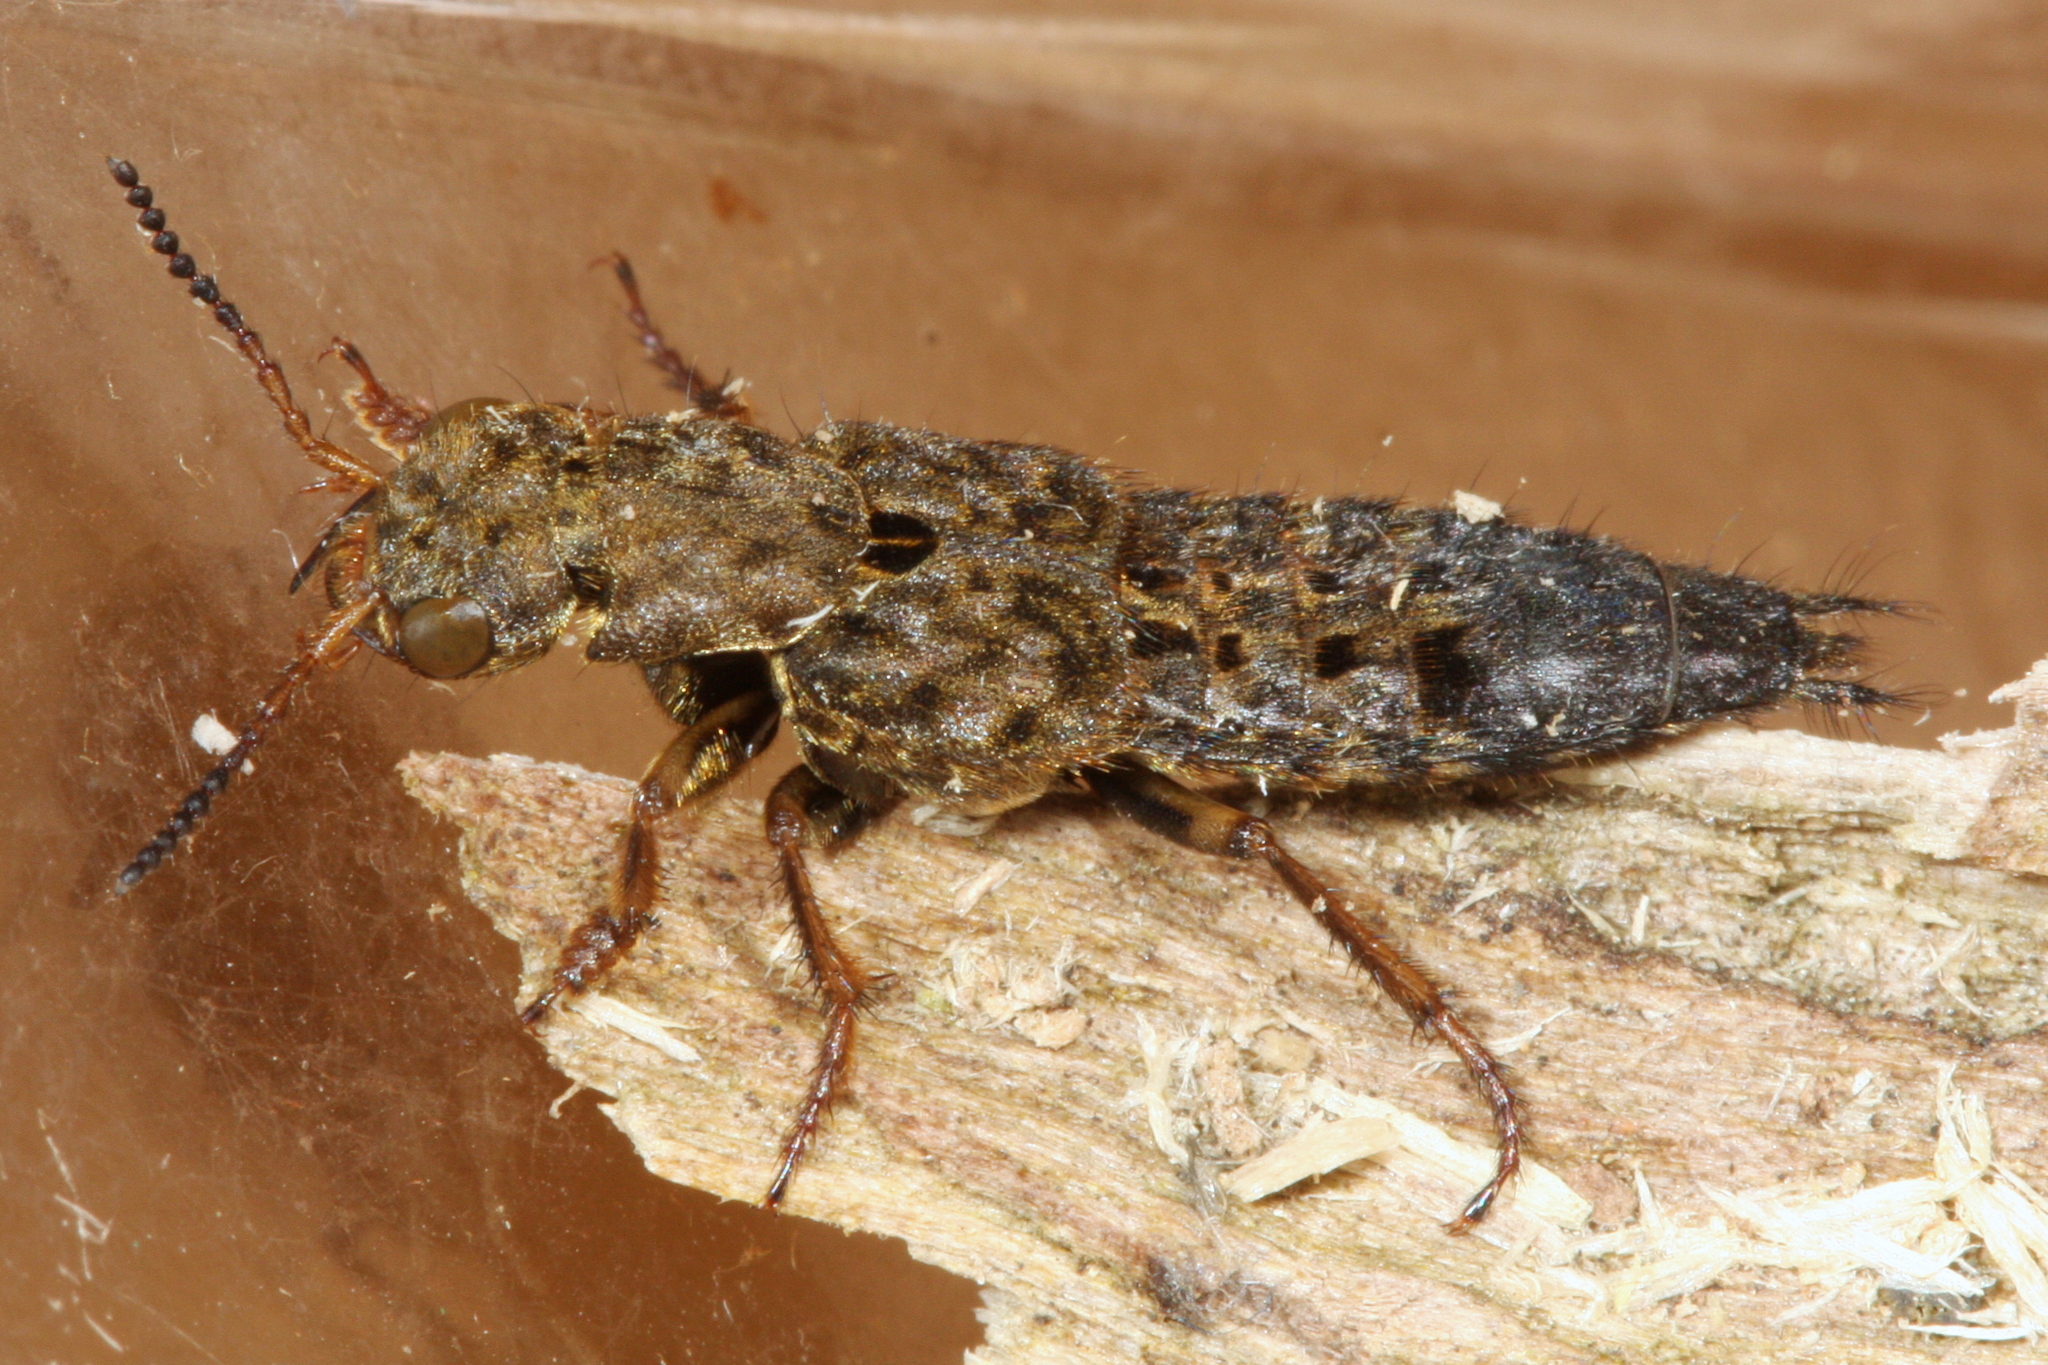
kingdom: Animalia
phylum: Arthropoda
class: Insecta
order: Coleoptera
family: Staphylinidae
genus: Ontholestes
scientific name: Ontholestes tessellatus
